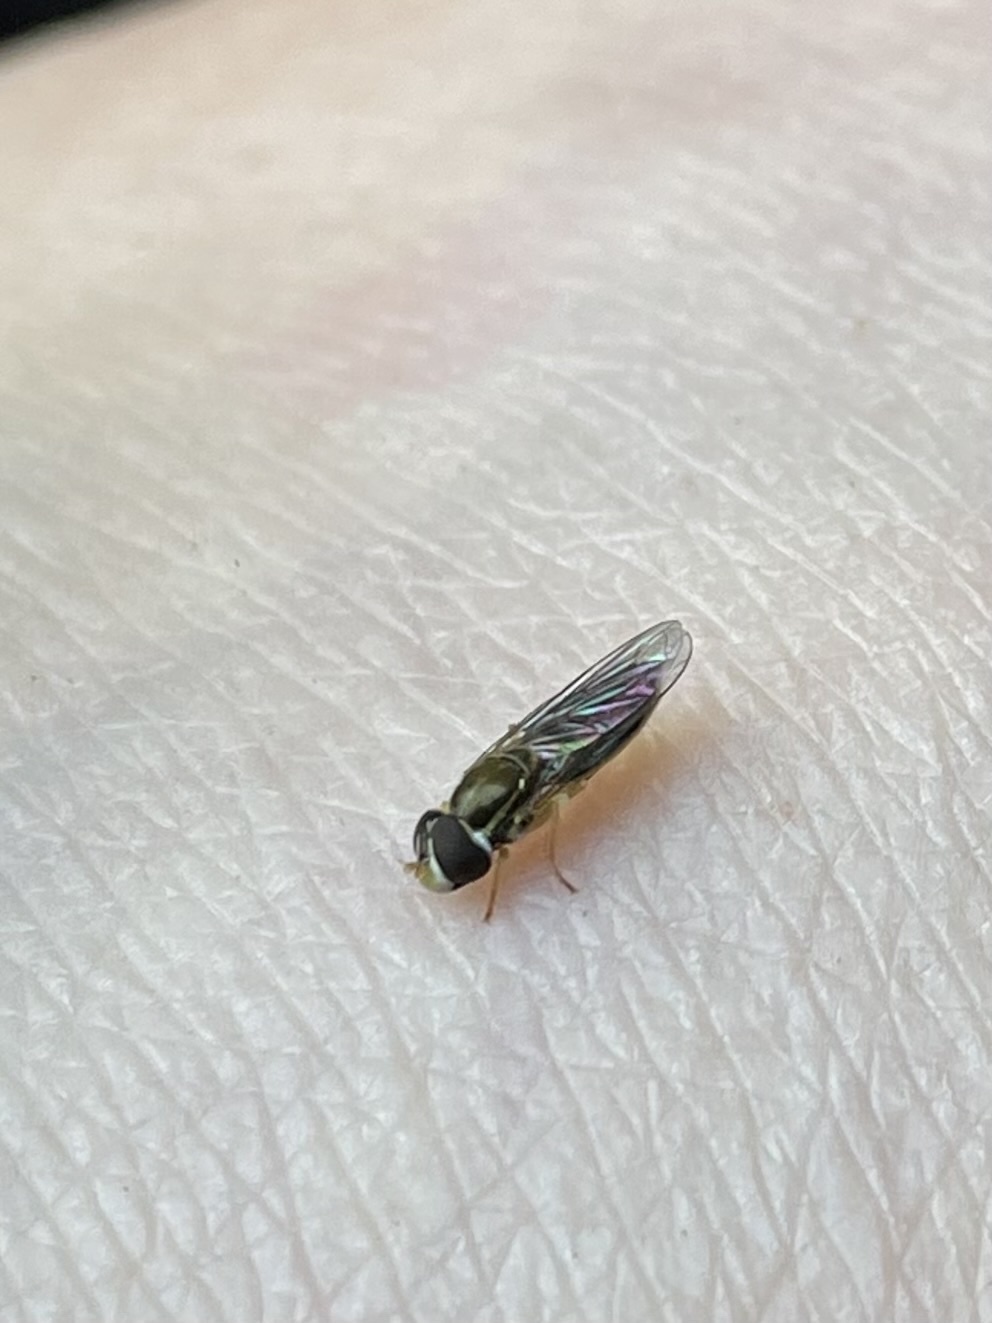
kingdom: Animalia
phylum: Arthropoda
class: Insecta
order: Diptera
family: Syrphidae
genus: Toxomerus
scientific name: Toxomerus marginatus
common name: Syrphid fly
